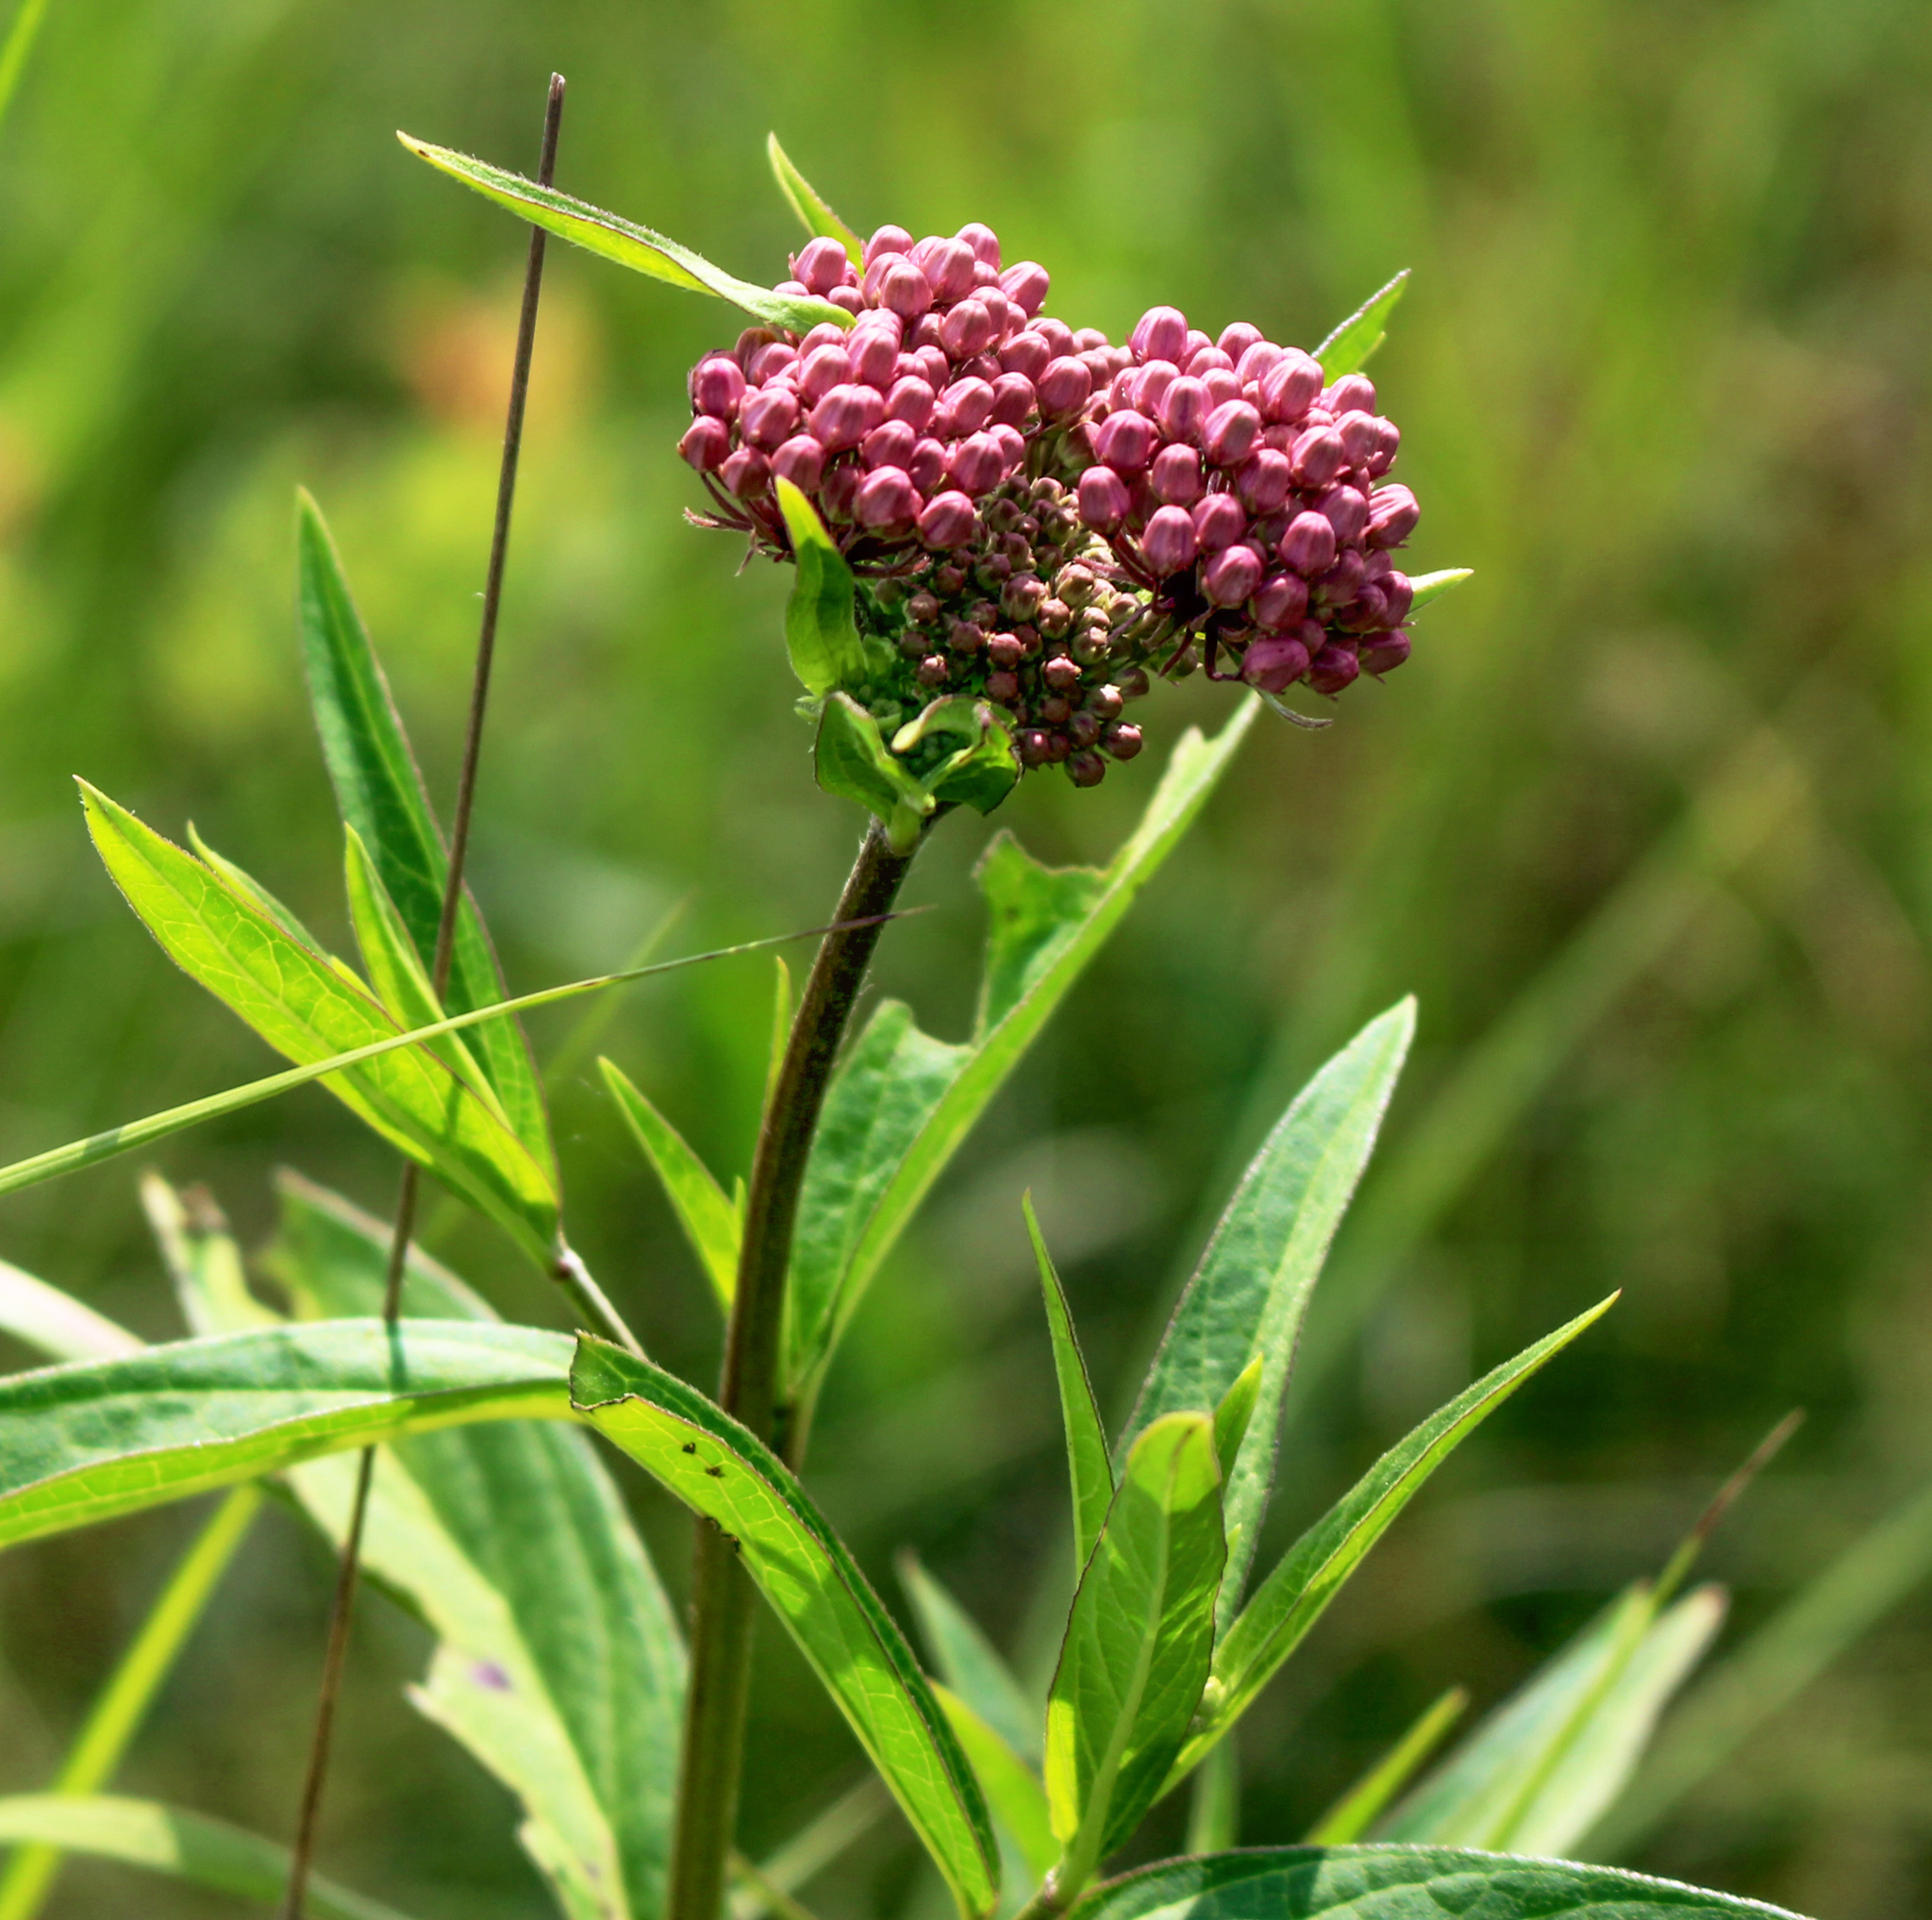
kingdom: Plantae
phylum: Tracheophyta
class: Magnoliopsida
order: Gentianales
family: Apocynaceae
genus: Asclepias
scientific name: Asclepias incarnata
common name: Swamp milkweed
